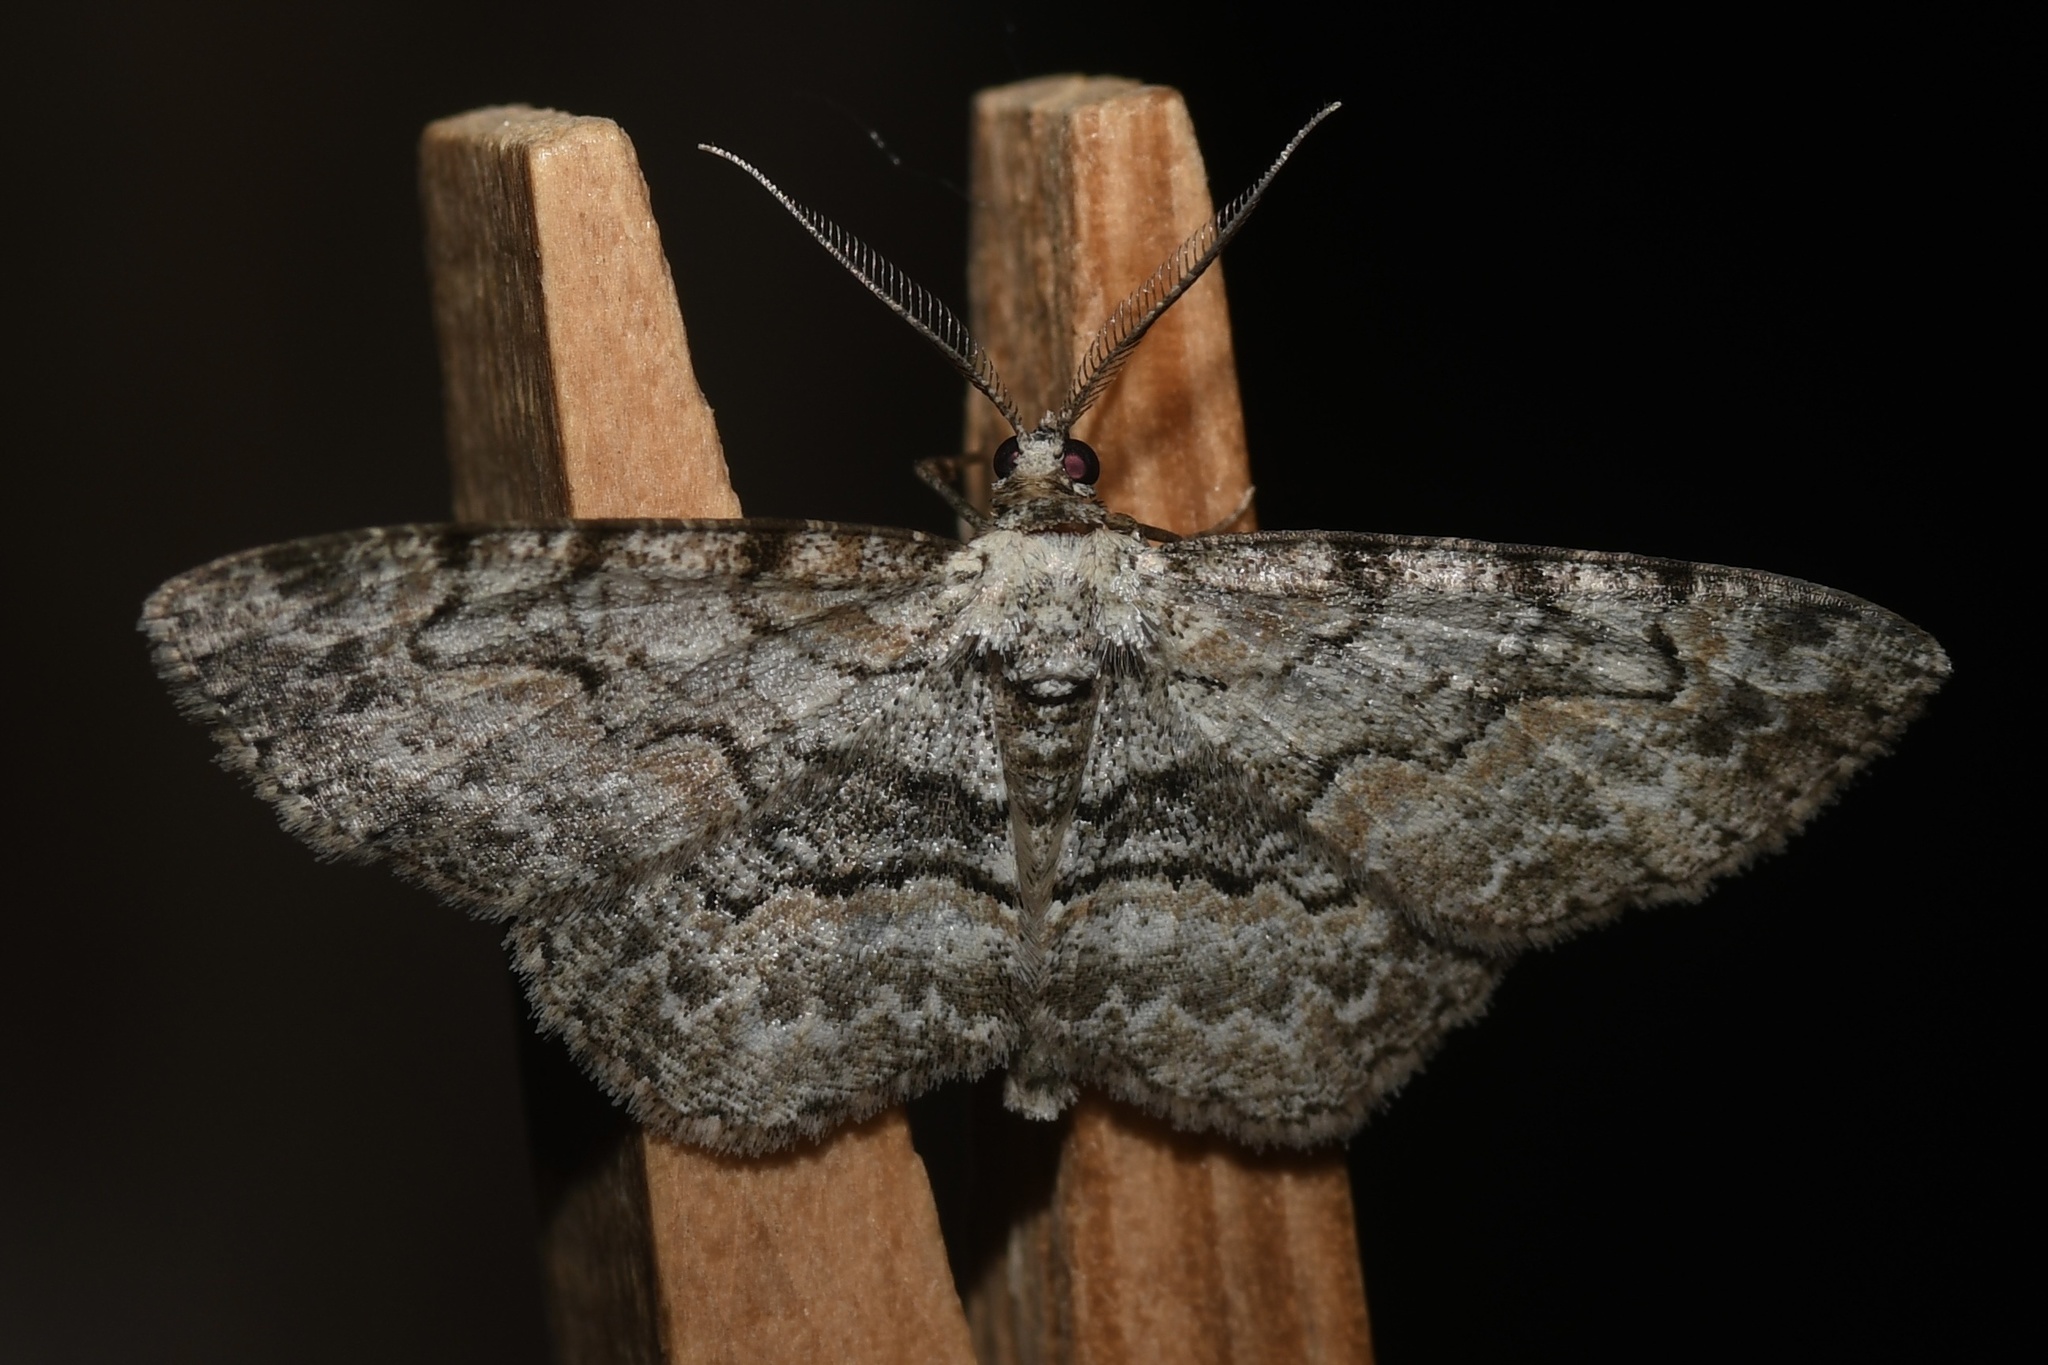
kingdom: Animalia
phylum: Arthropoda
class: Insecta
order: Lepidoptera
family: Geometridae
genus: Iridopsis
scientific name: Iridopsis ephyraria
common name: Pale-winged gray
